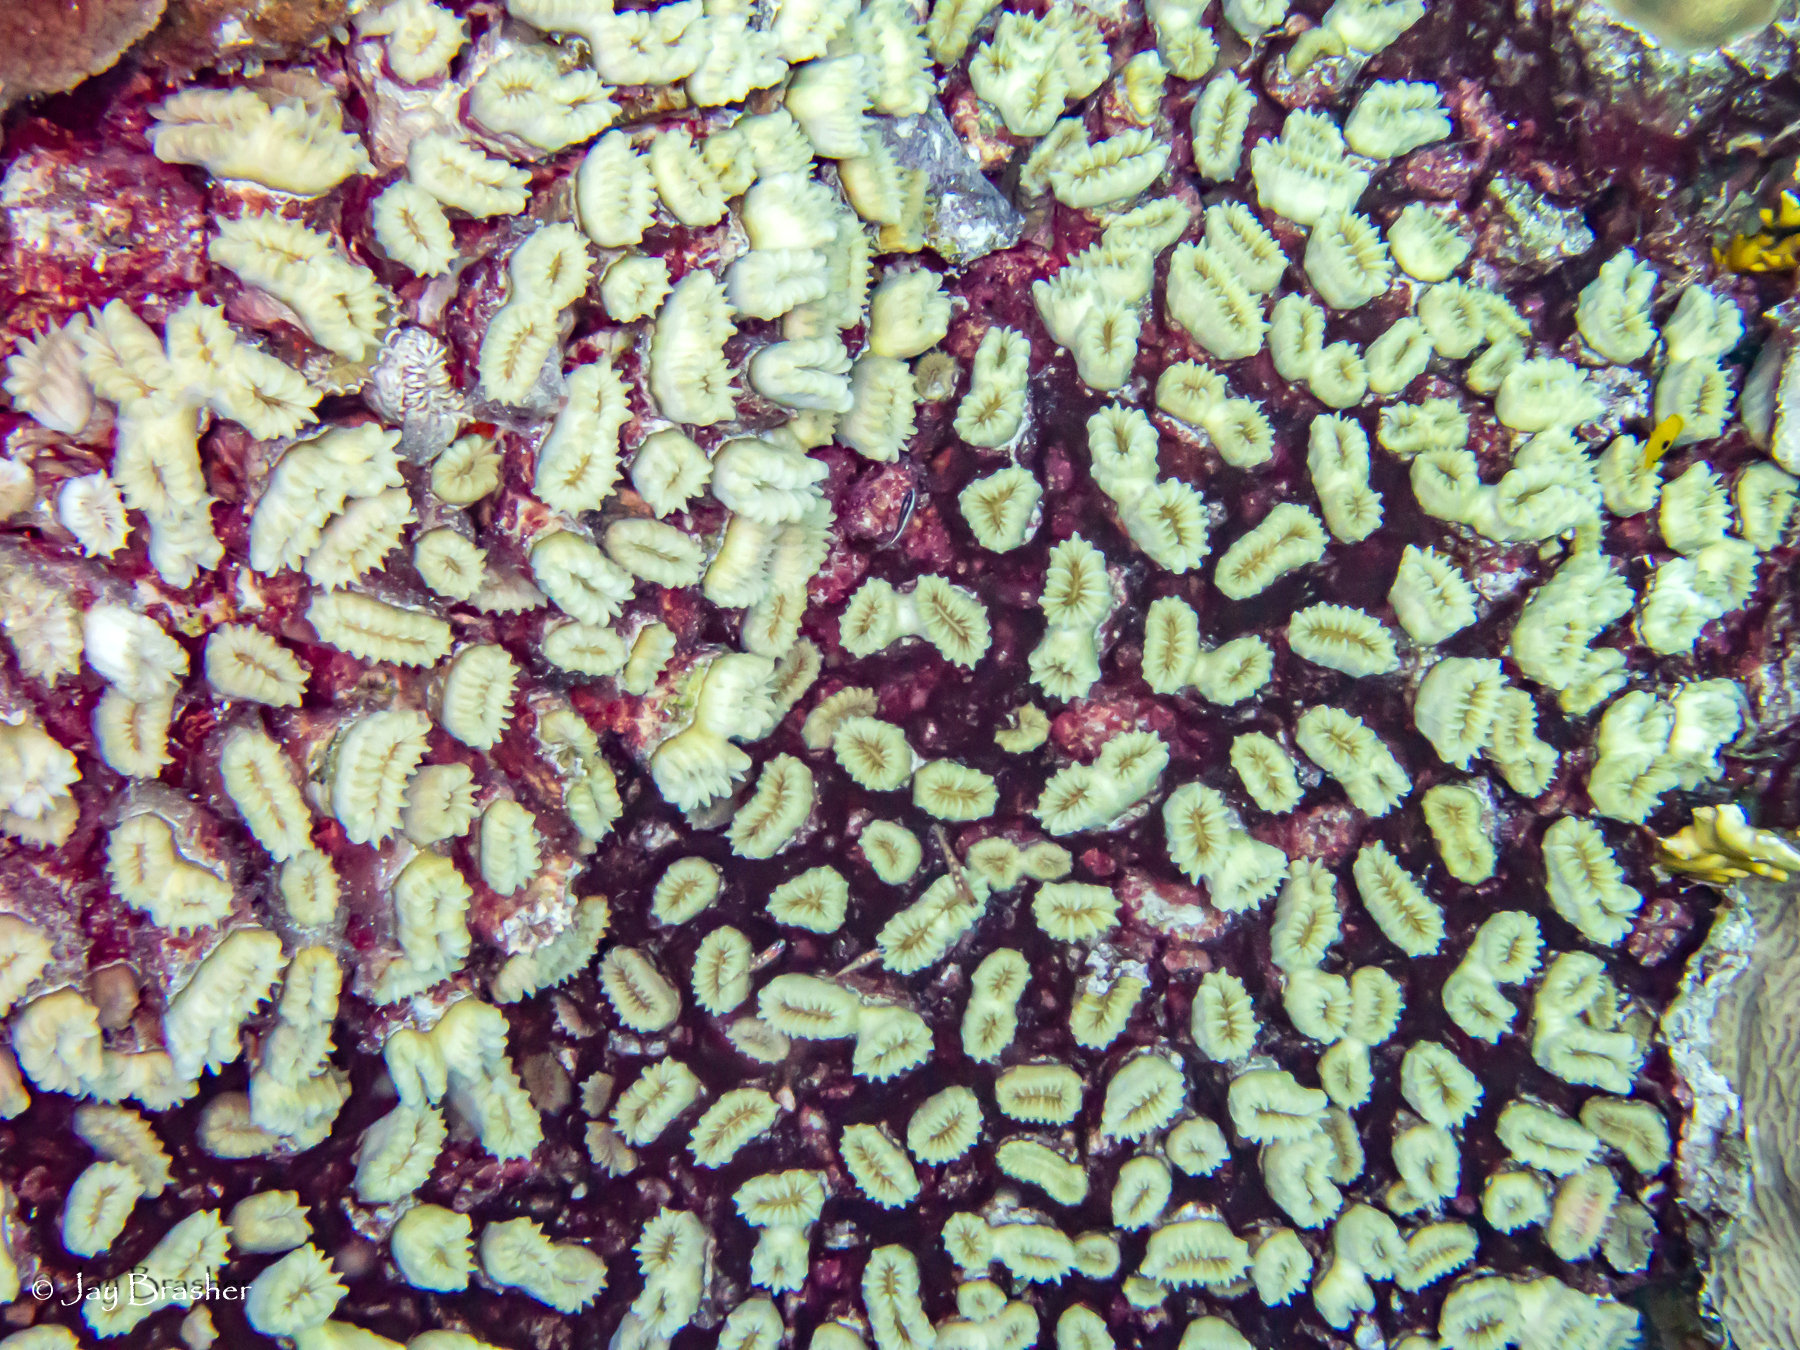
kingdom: Animalia
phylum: Cnidaria
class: Anthozoa
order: Scleractinia
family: Meandrinidae
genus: Eusmilia
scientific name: Eusmilia fastigiata
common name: Smooth flower coral
